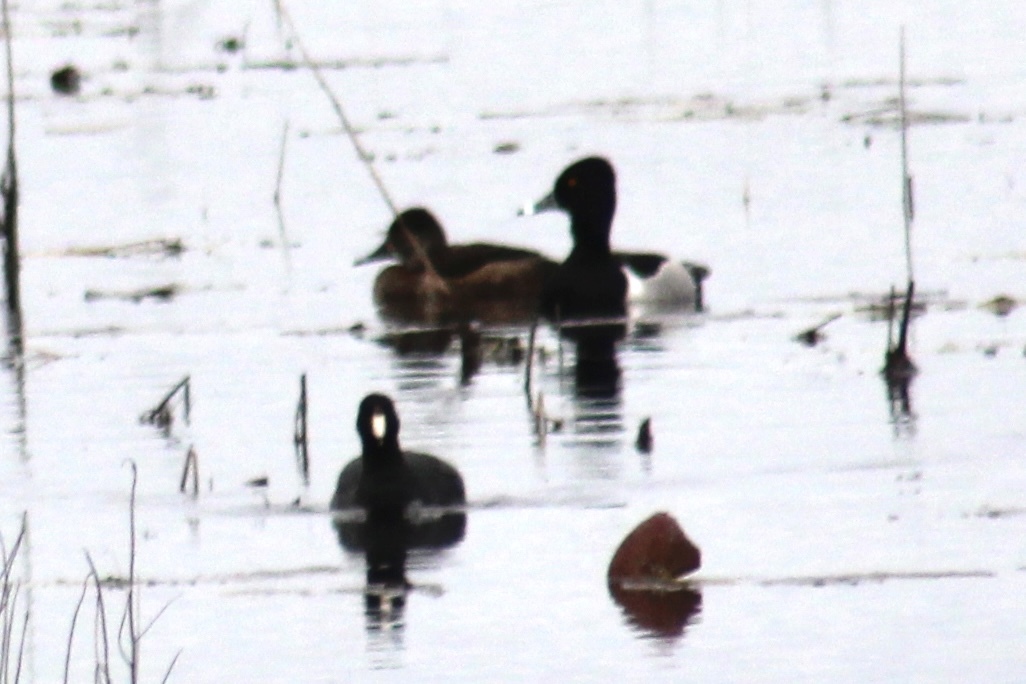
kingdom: Animalia
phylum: Chordata
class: Aves
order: Anseriformes
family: Anatidae
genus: Aythya
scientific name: Aythya collaris
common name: Ring-necked duck
